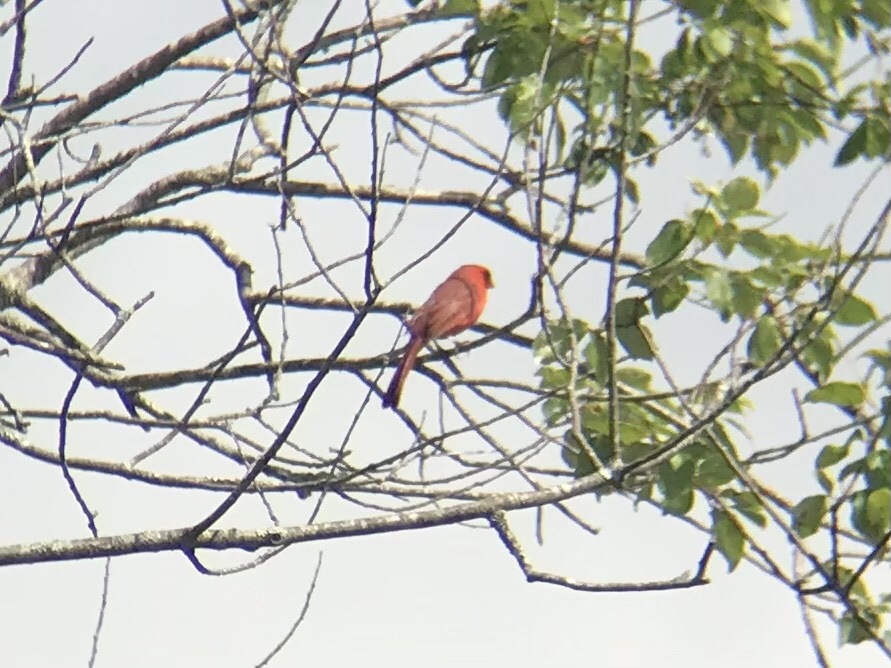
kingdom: Animalia
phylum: Chordata
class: Aves
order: Passeriformes
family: Cardinalidae
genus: Cardinalis
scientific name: Cardinalis cardinalis
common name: Northern cardinal
